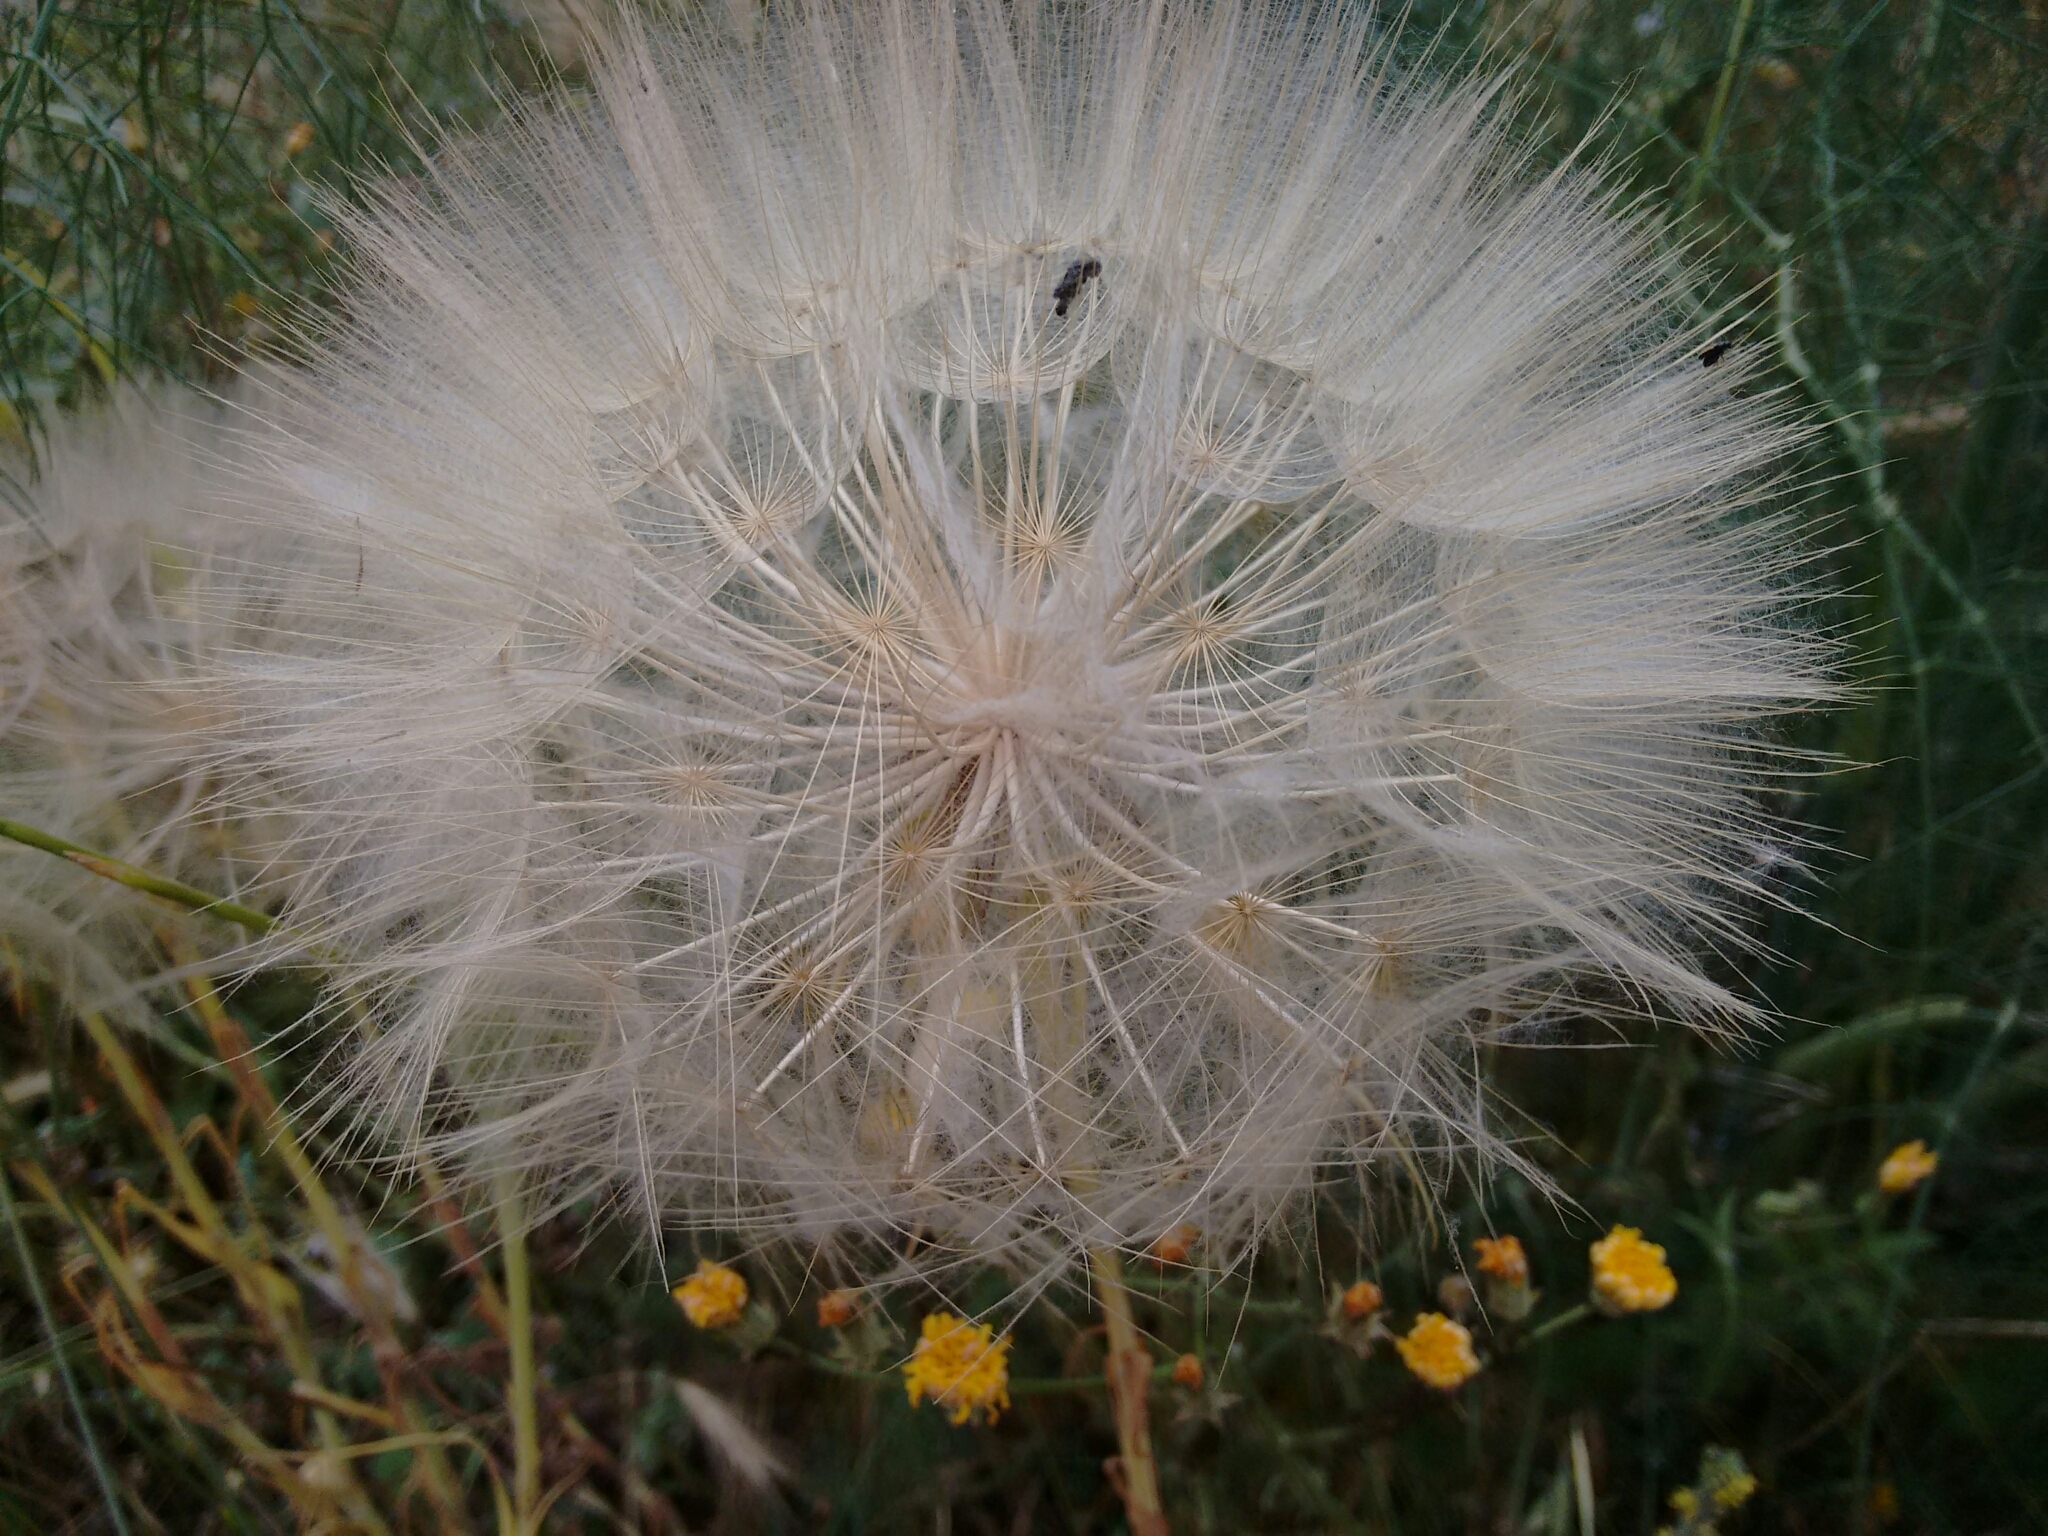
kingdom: Plantae
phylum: Tracheophyta
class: Magnoliopsida
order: Asterales
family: Asteraceae
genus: Tragopogon
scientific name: Tragopogon porrifolius
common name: Salsify
